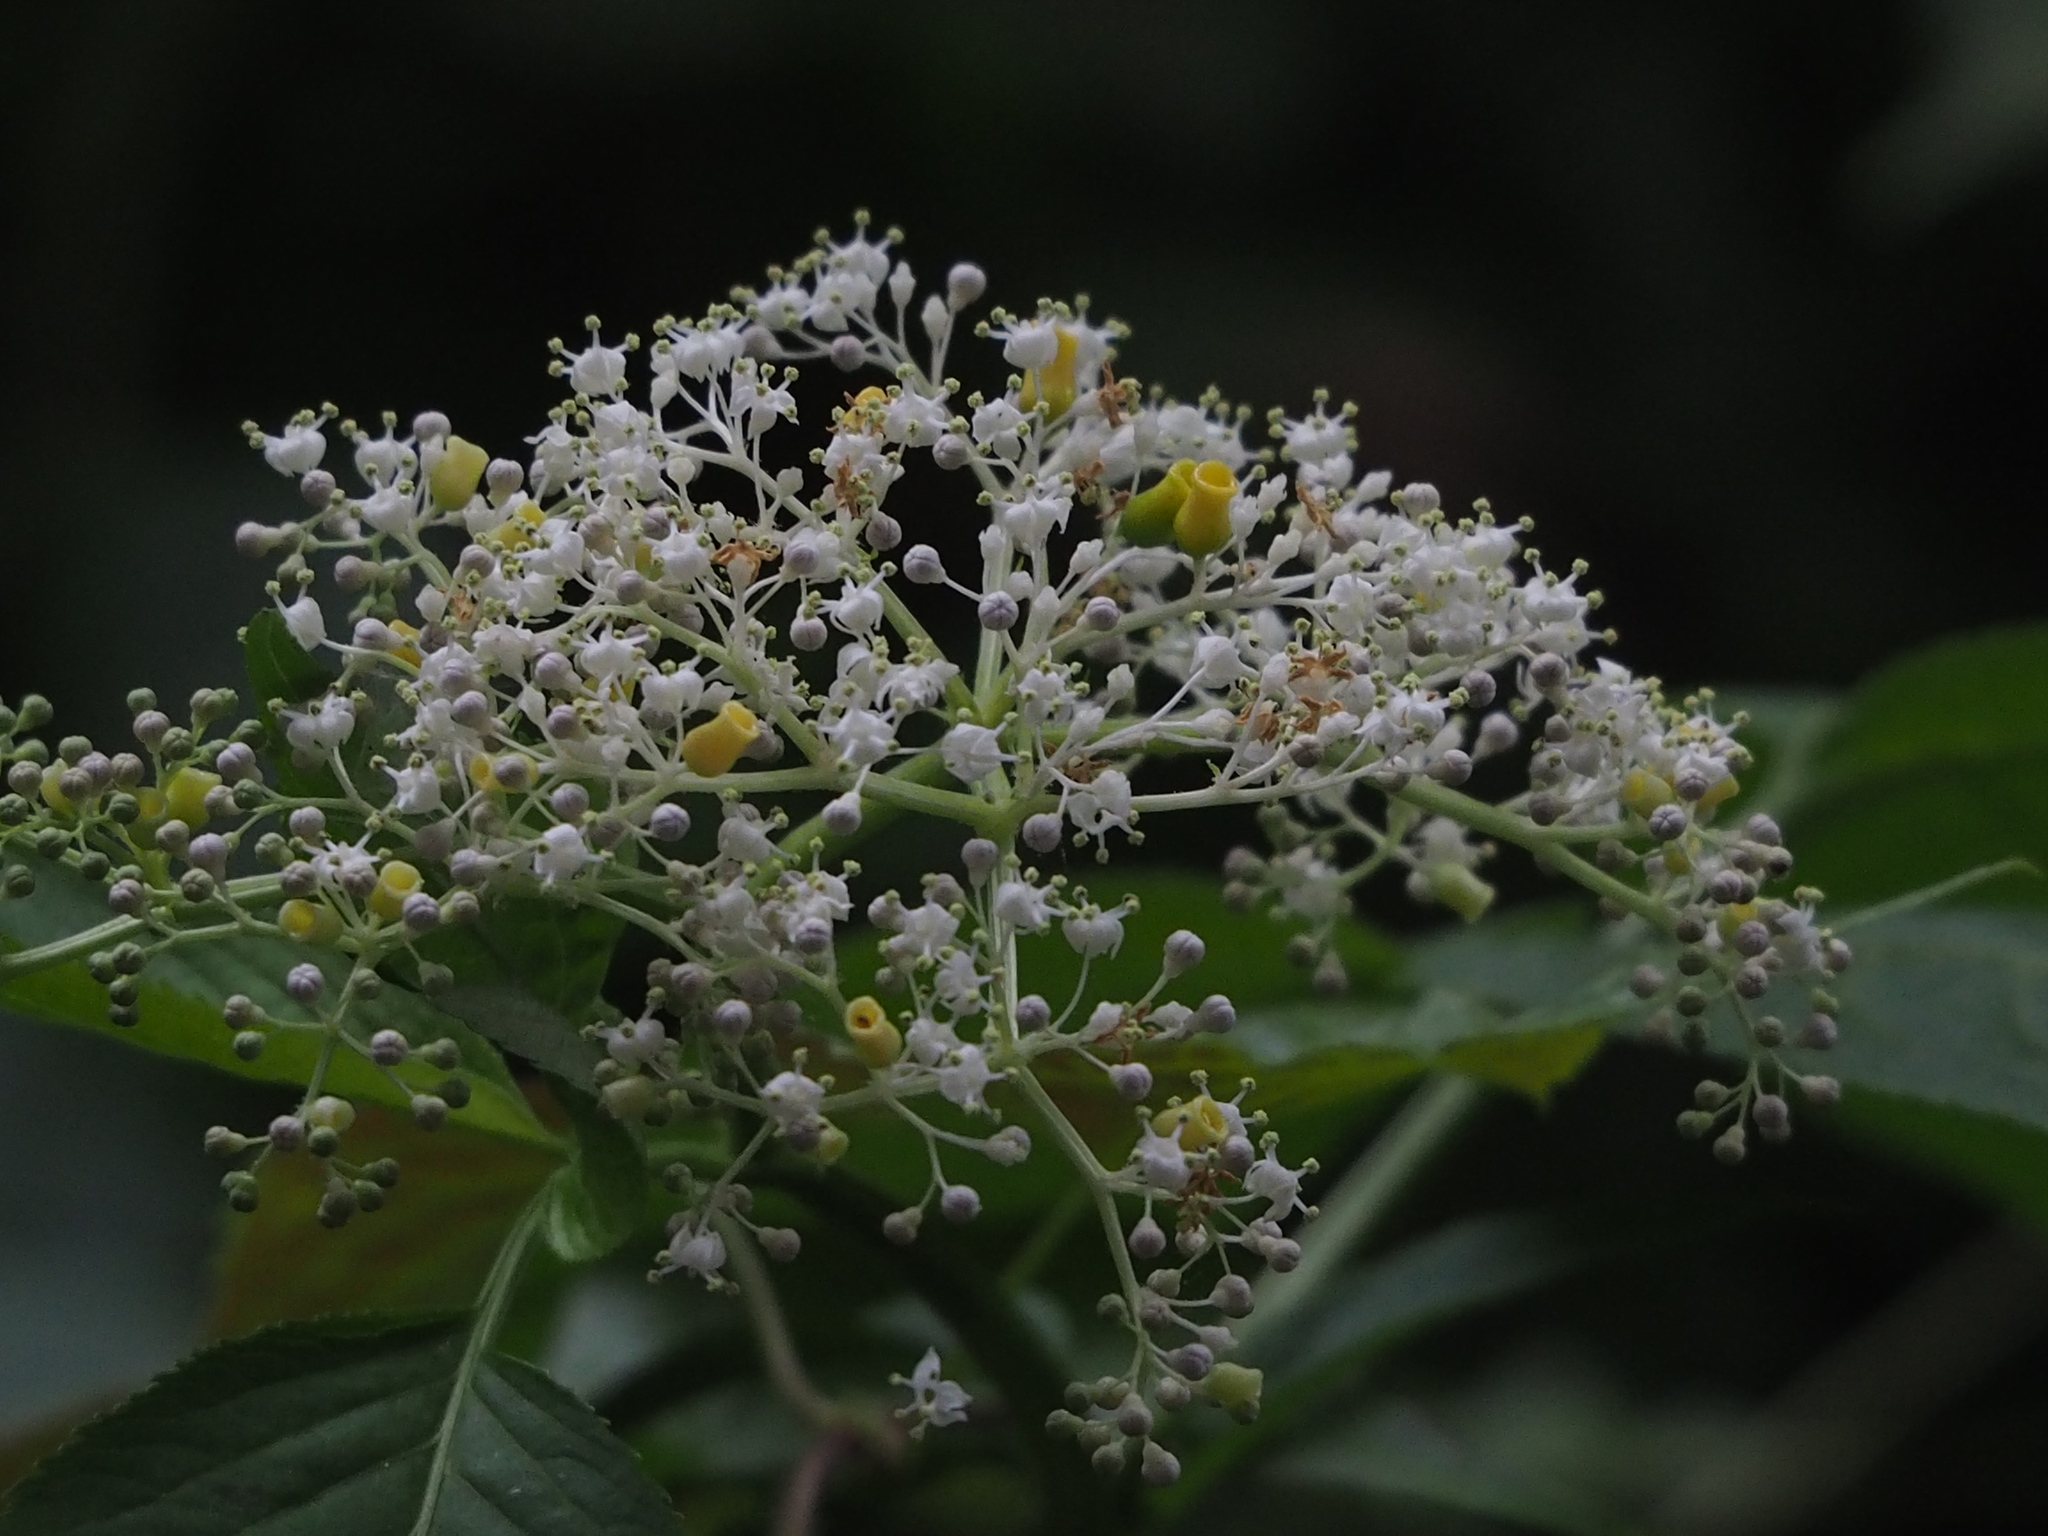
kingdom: Plantae
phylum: Tracheophyta
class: Magnoliopsida
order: Dipsacales
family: Viburnaceae
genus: Sambucus
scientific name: Sambucus javanica
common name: Chinese elder
